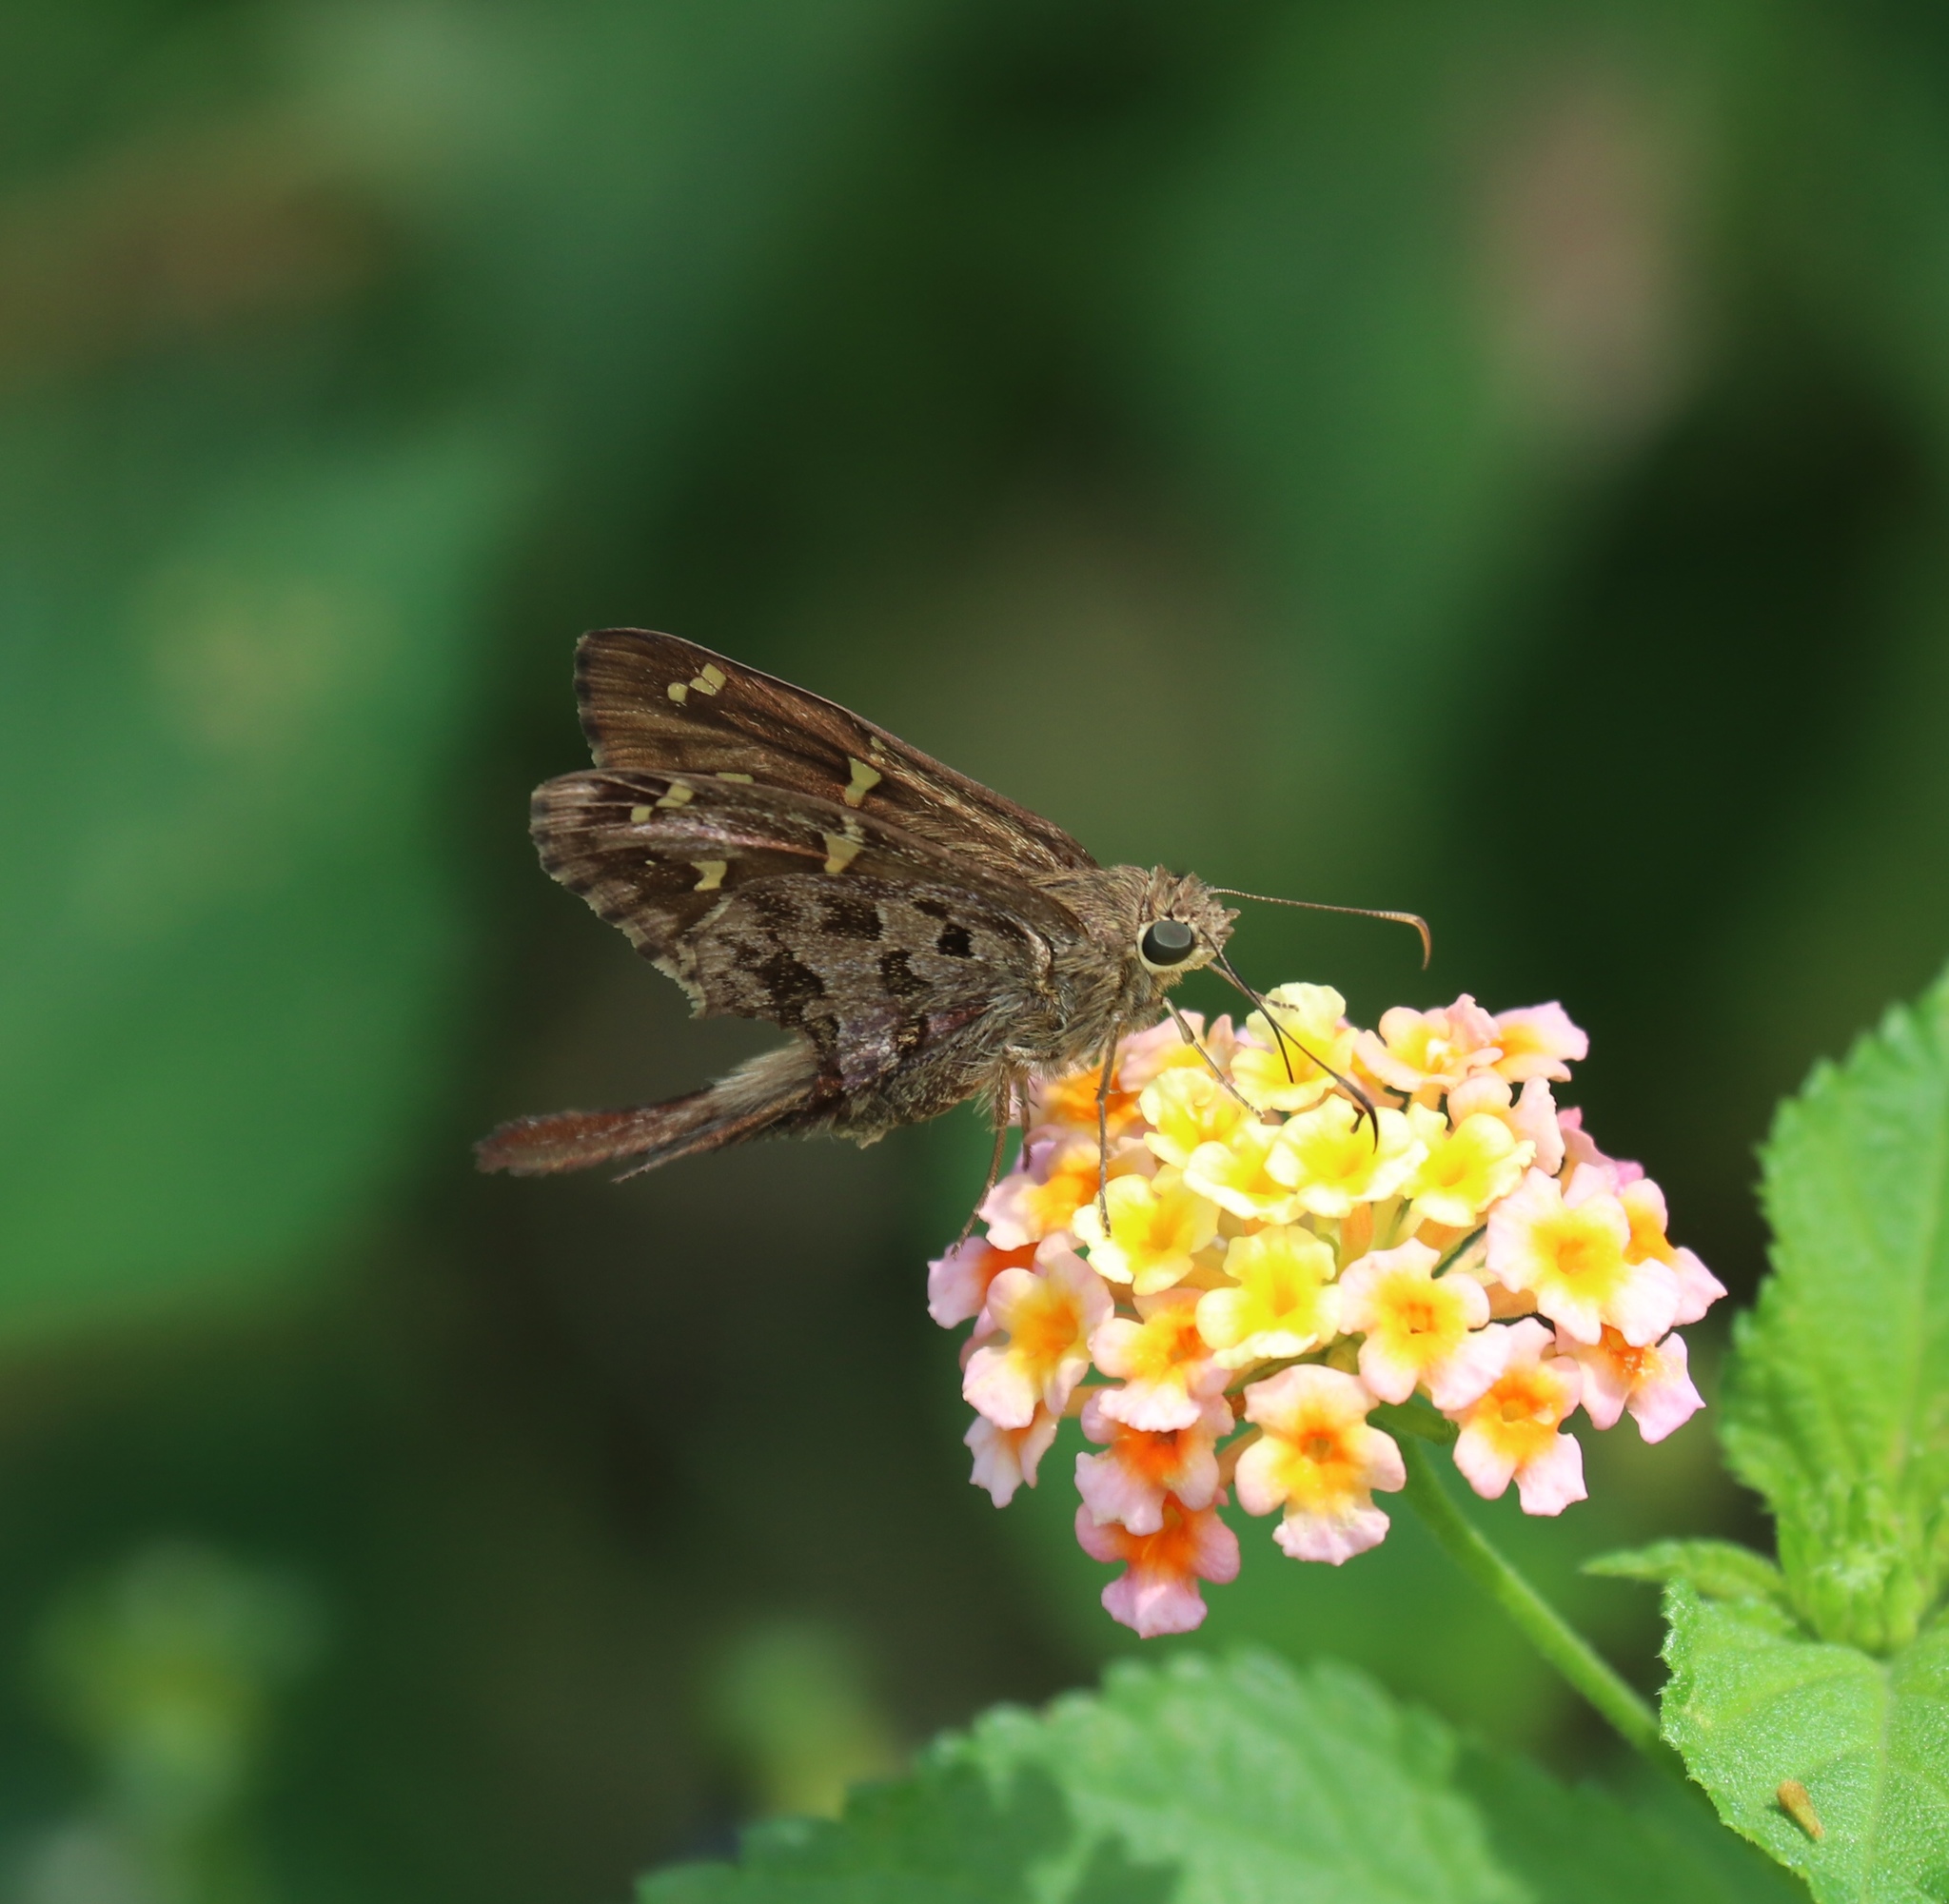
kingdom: Animalia
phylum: Arthropoda
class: Insecta
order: Lepidoptera
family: Hesperiidae
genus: Thorybes
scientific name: Thorybes
